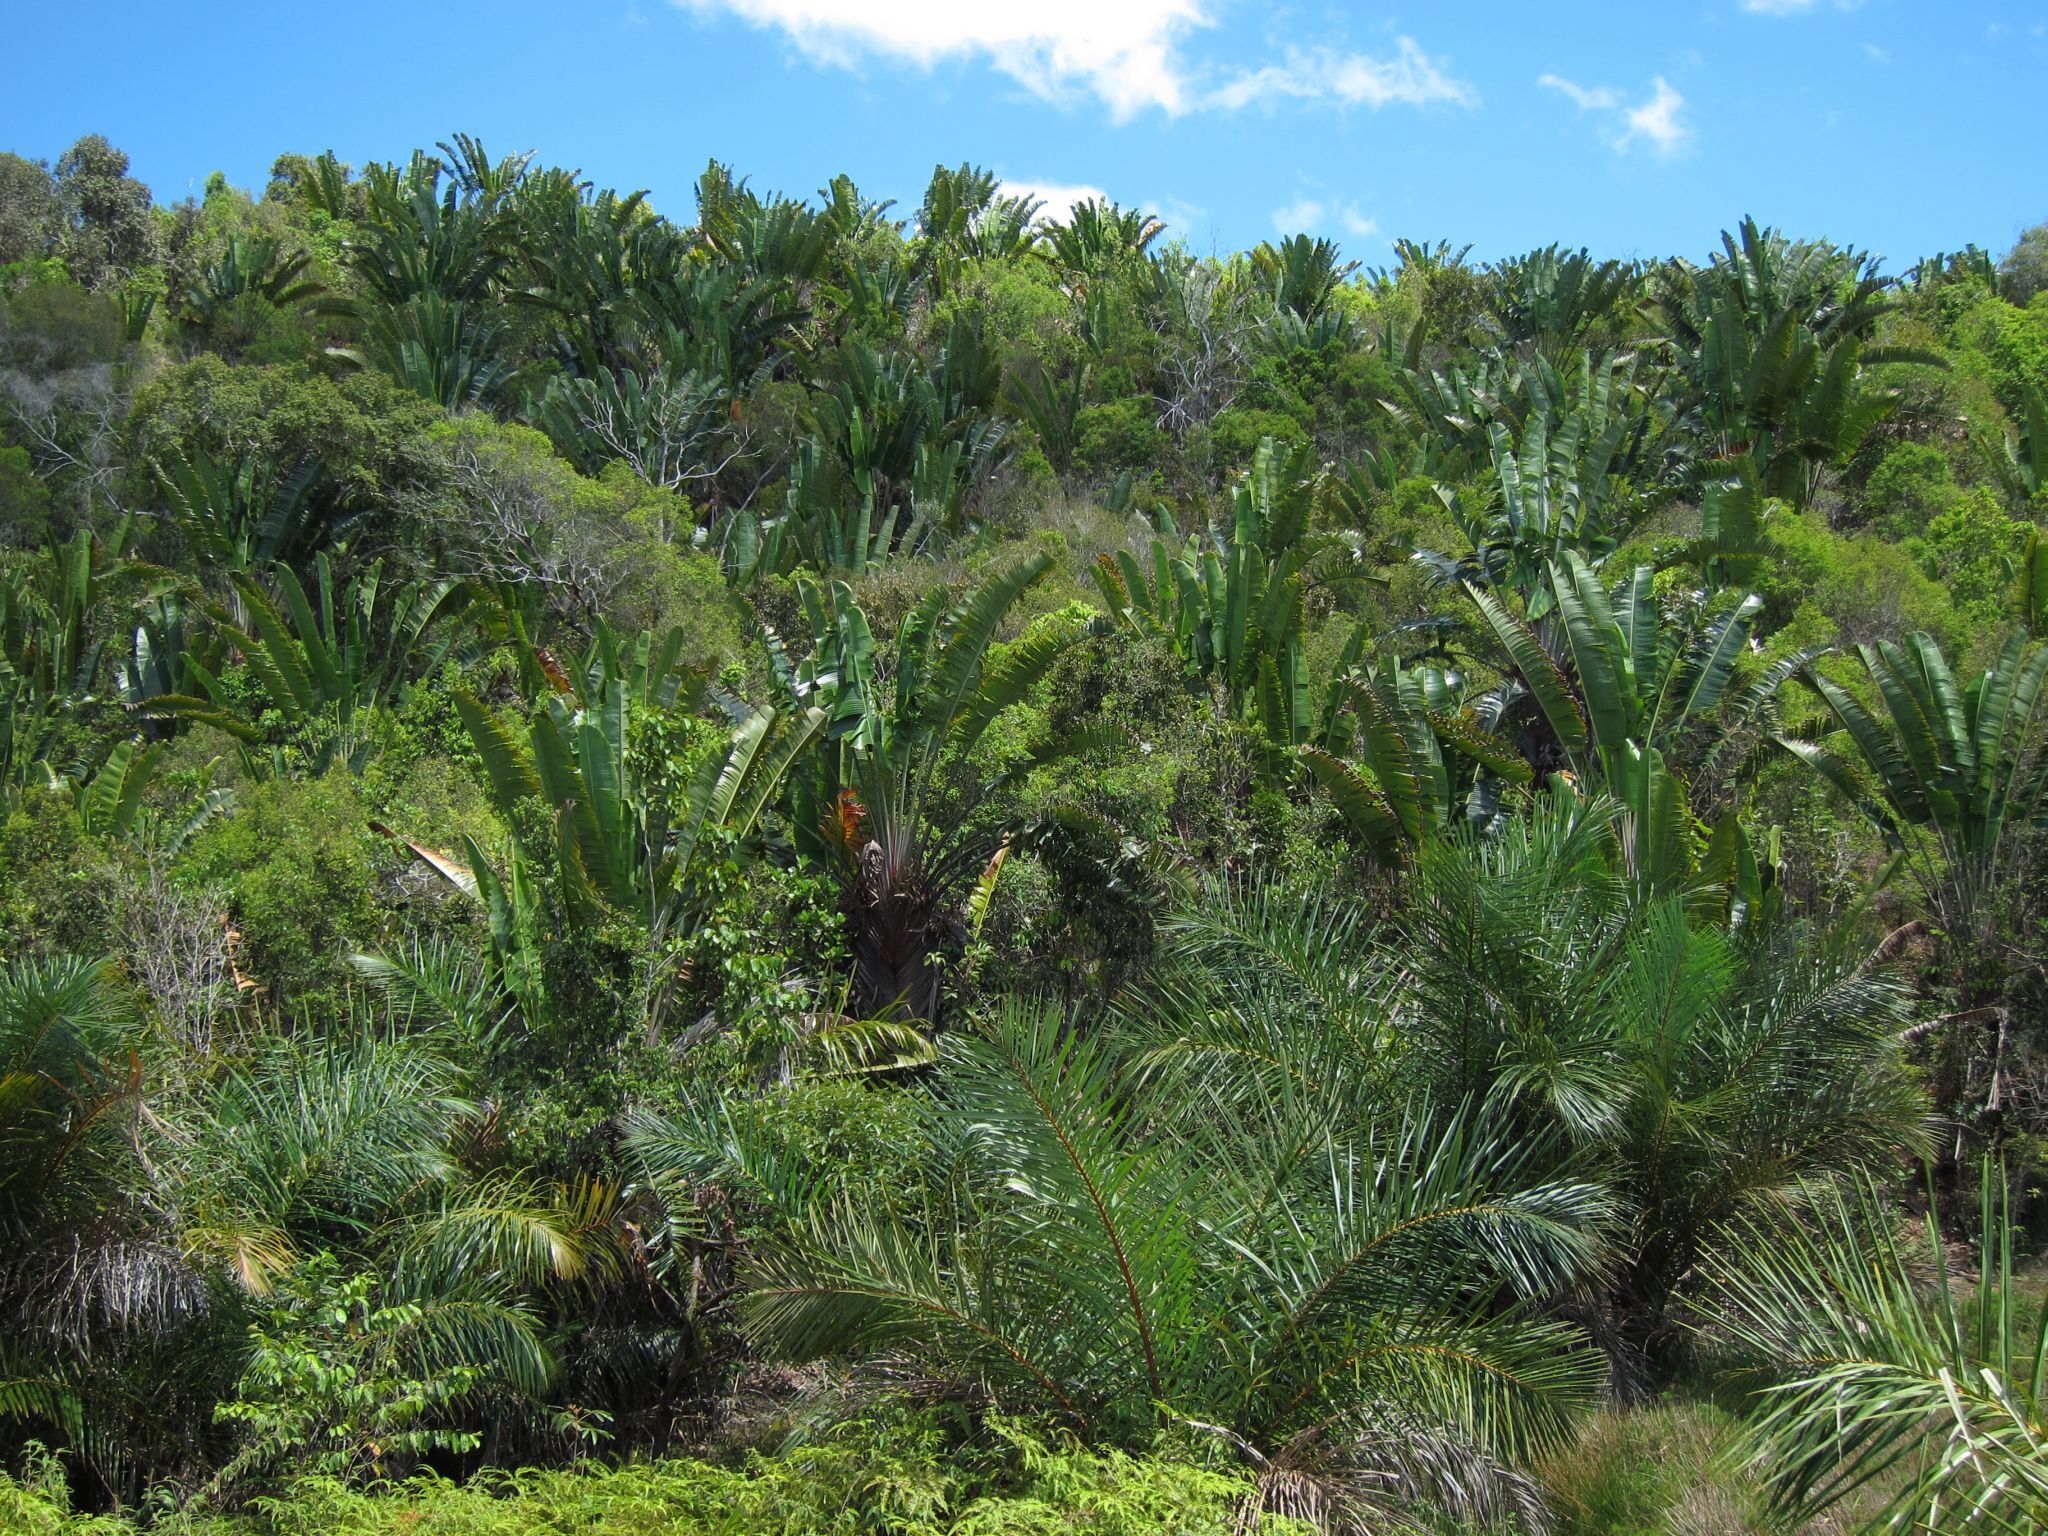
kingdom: Plantae
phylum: Tracheophyta
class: Liliopsida
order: Zingiberales
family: Strelitziaceae
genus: Ravenala
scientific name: Ravenala agatheae
